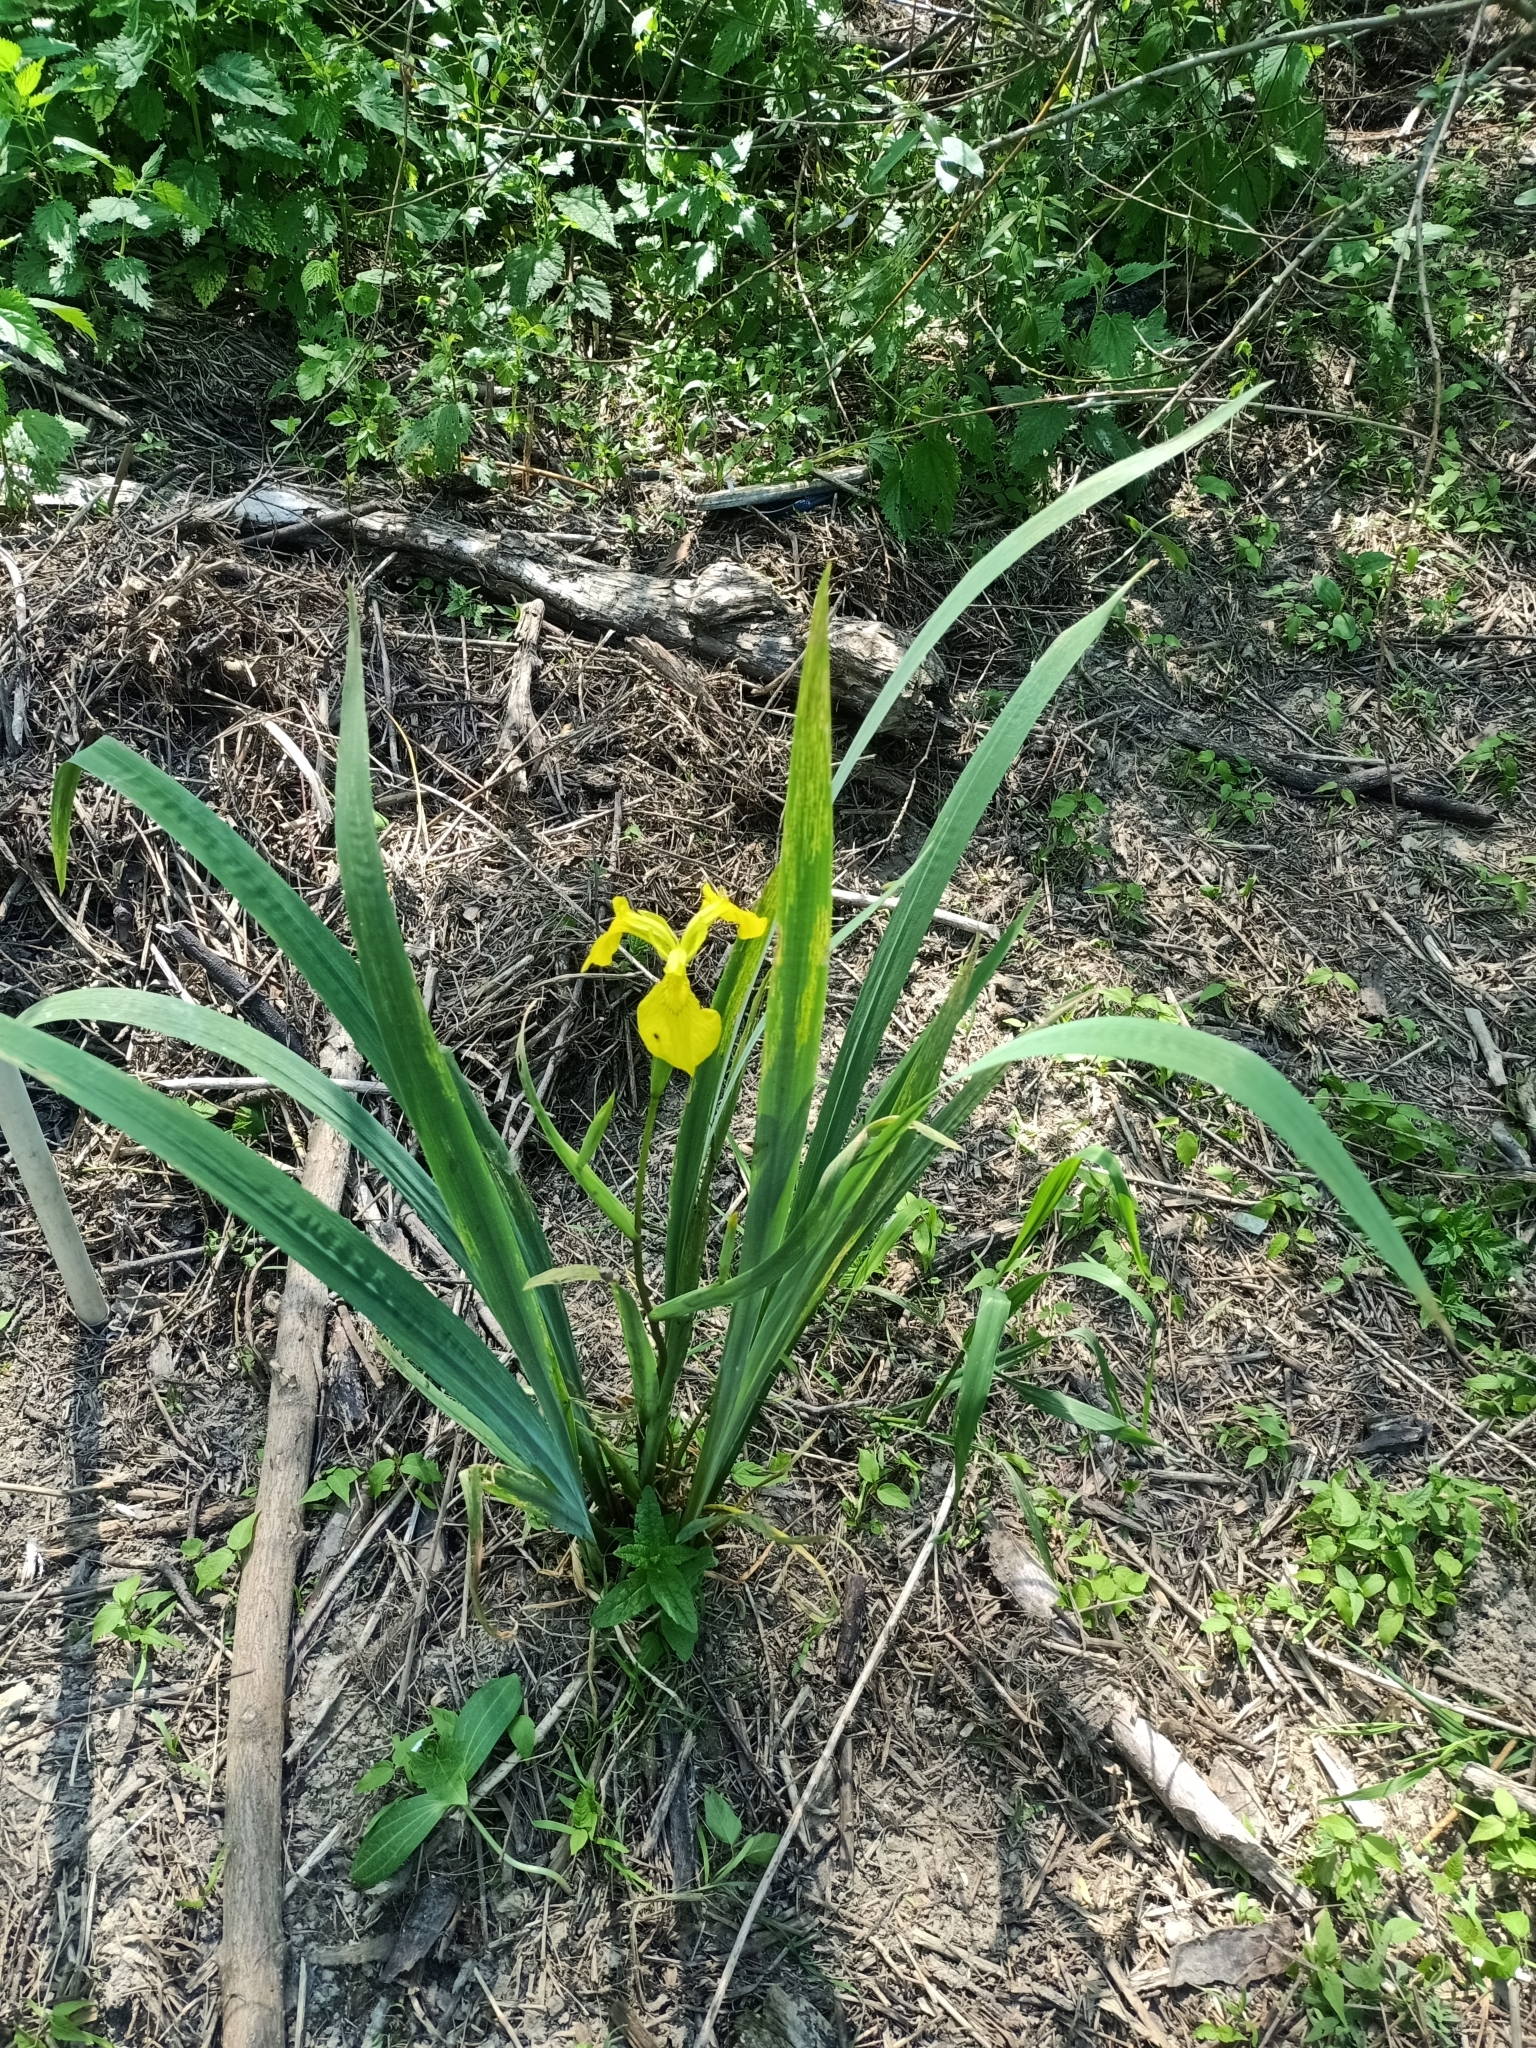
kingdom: Plantae
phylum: Tracheophyta
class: Liliopsida
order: Asparagales
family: Iridaceae
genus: Iris
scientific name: Iris pseudacorus
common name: Yellow flag
